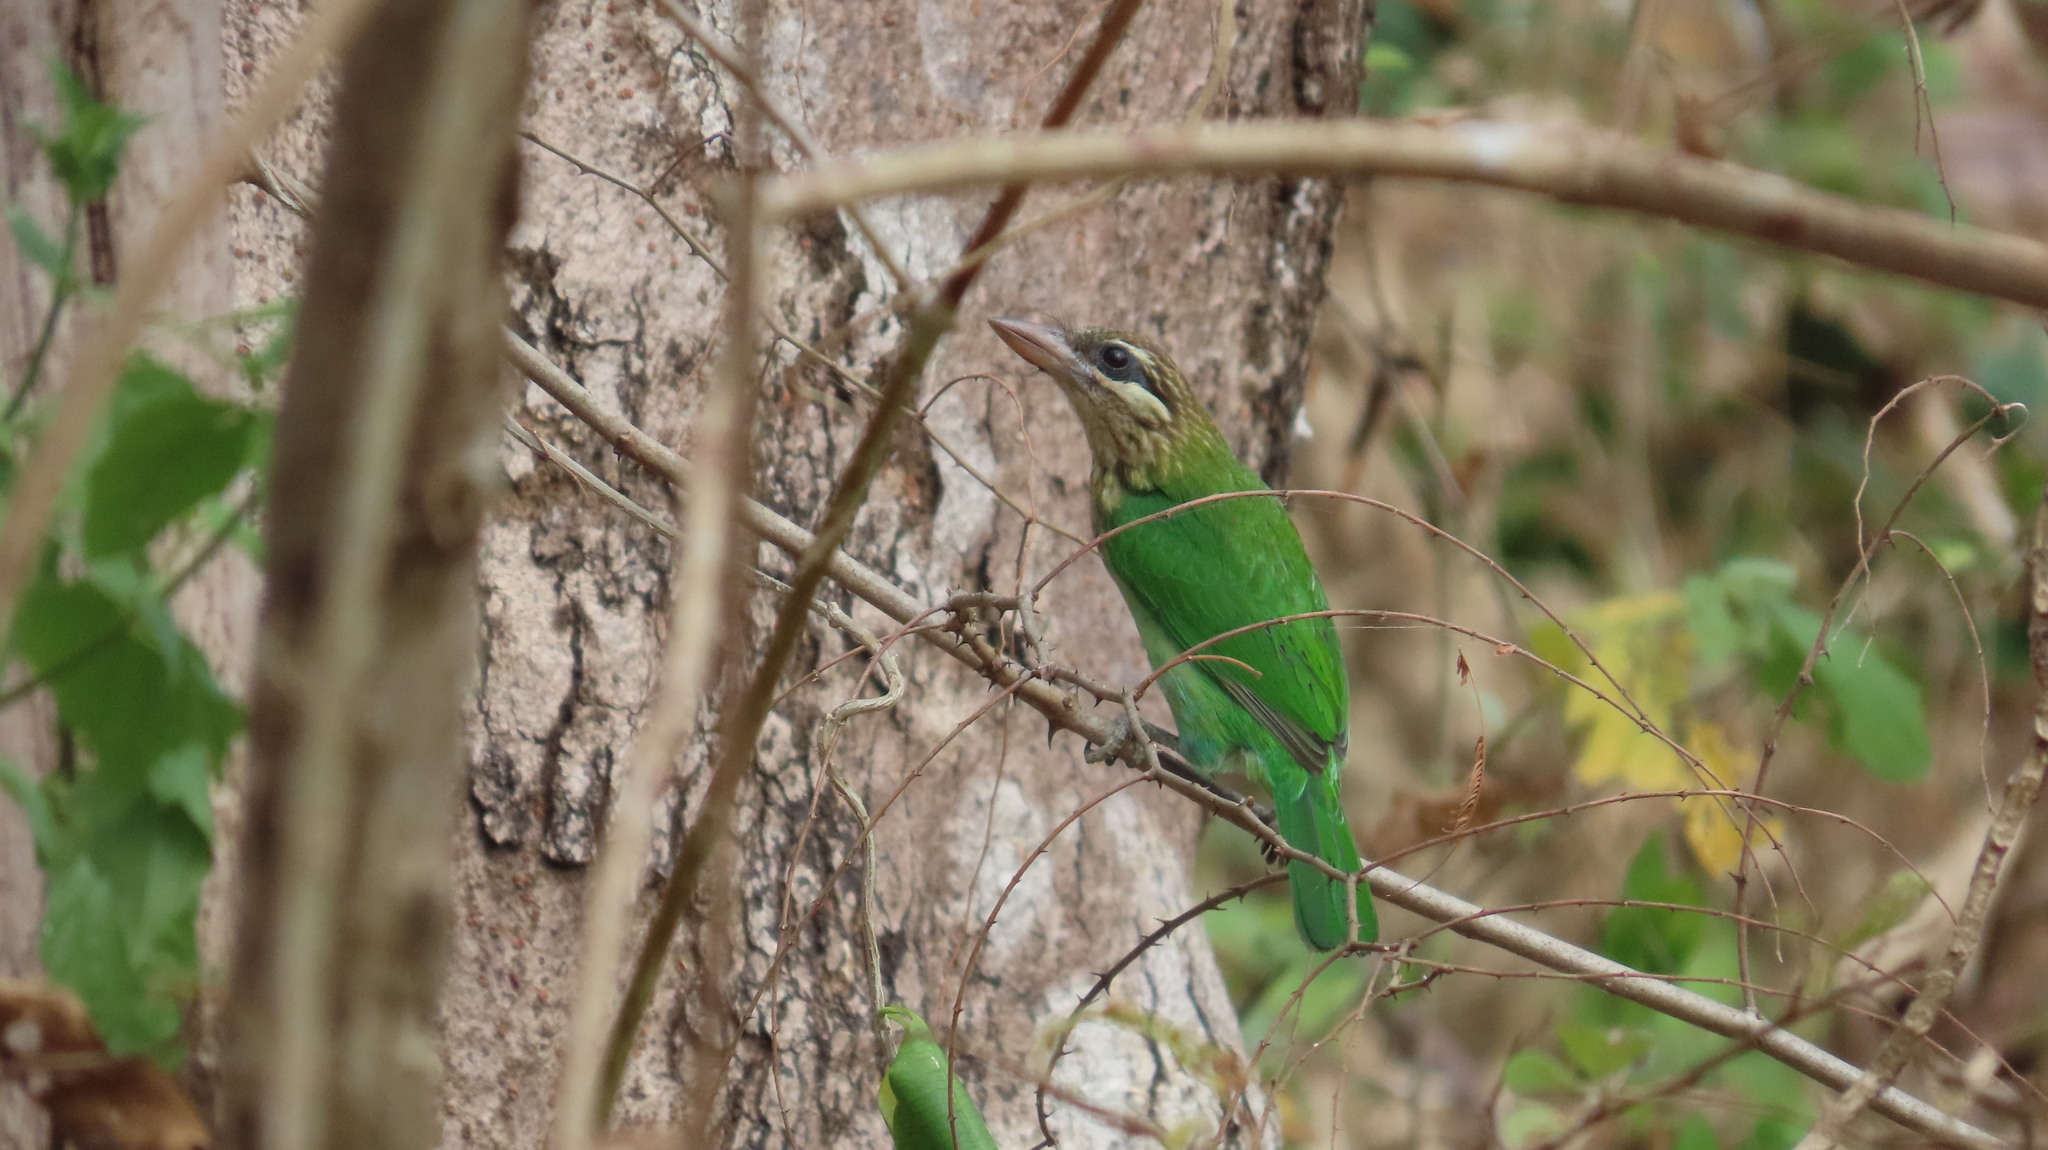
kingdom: Animalia
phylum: Chordata
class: Aves
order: Piciformes
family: Megalaimidae
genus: Psilopogon
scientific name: Psilopogon viridis
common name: White-cheeked barbet
